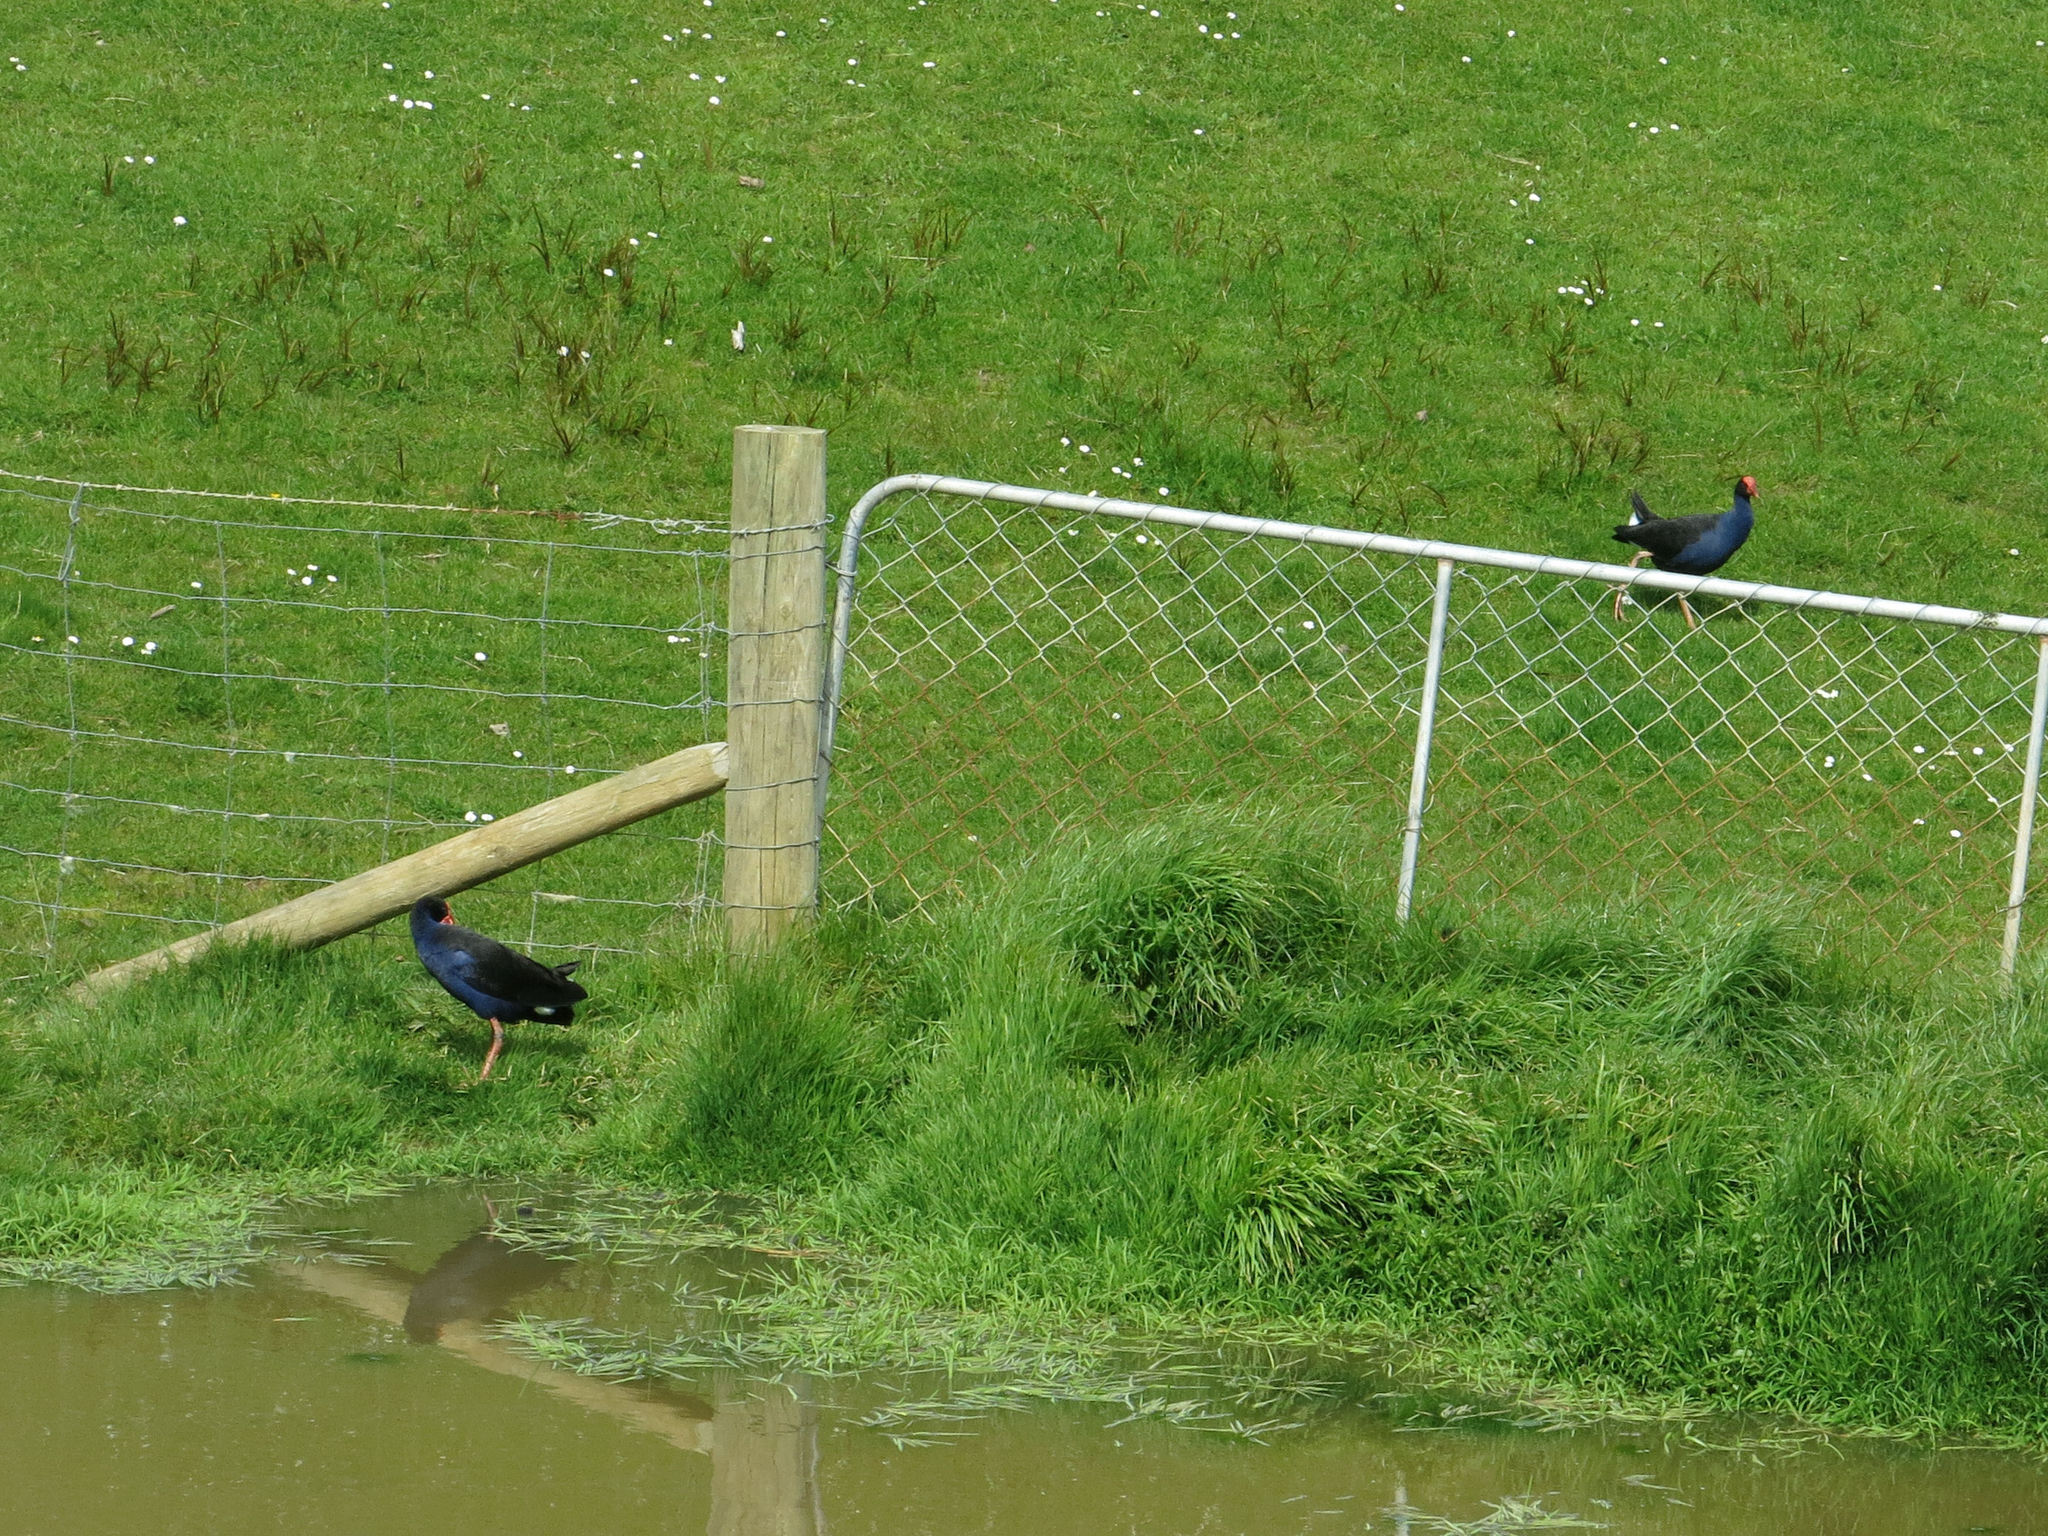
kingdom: Animalia
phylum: Chordata
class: Aves
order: Gruiformes
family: Rallidae
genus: Porphyrio
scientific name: Porphyrio melanotus
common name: Australasian swamphen
